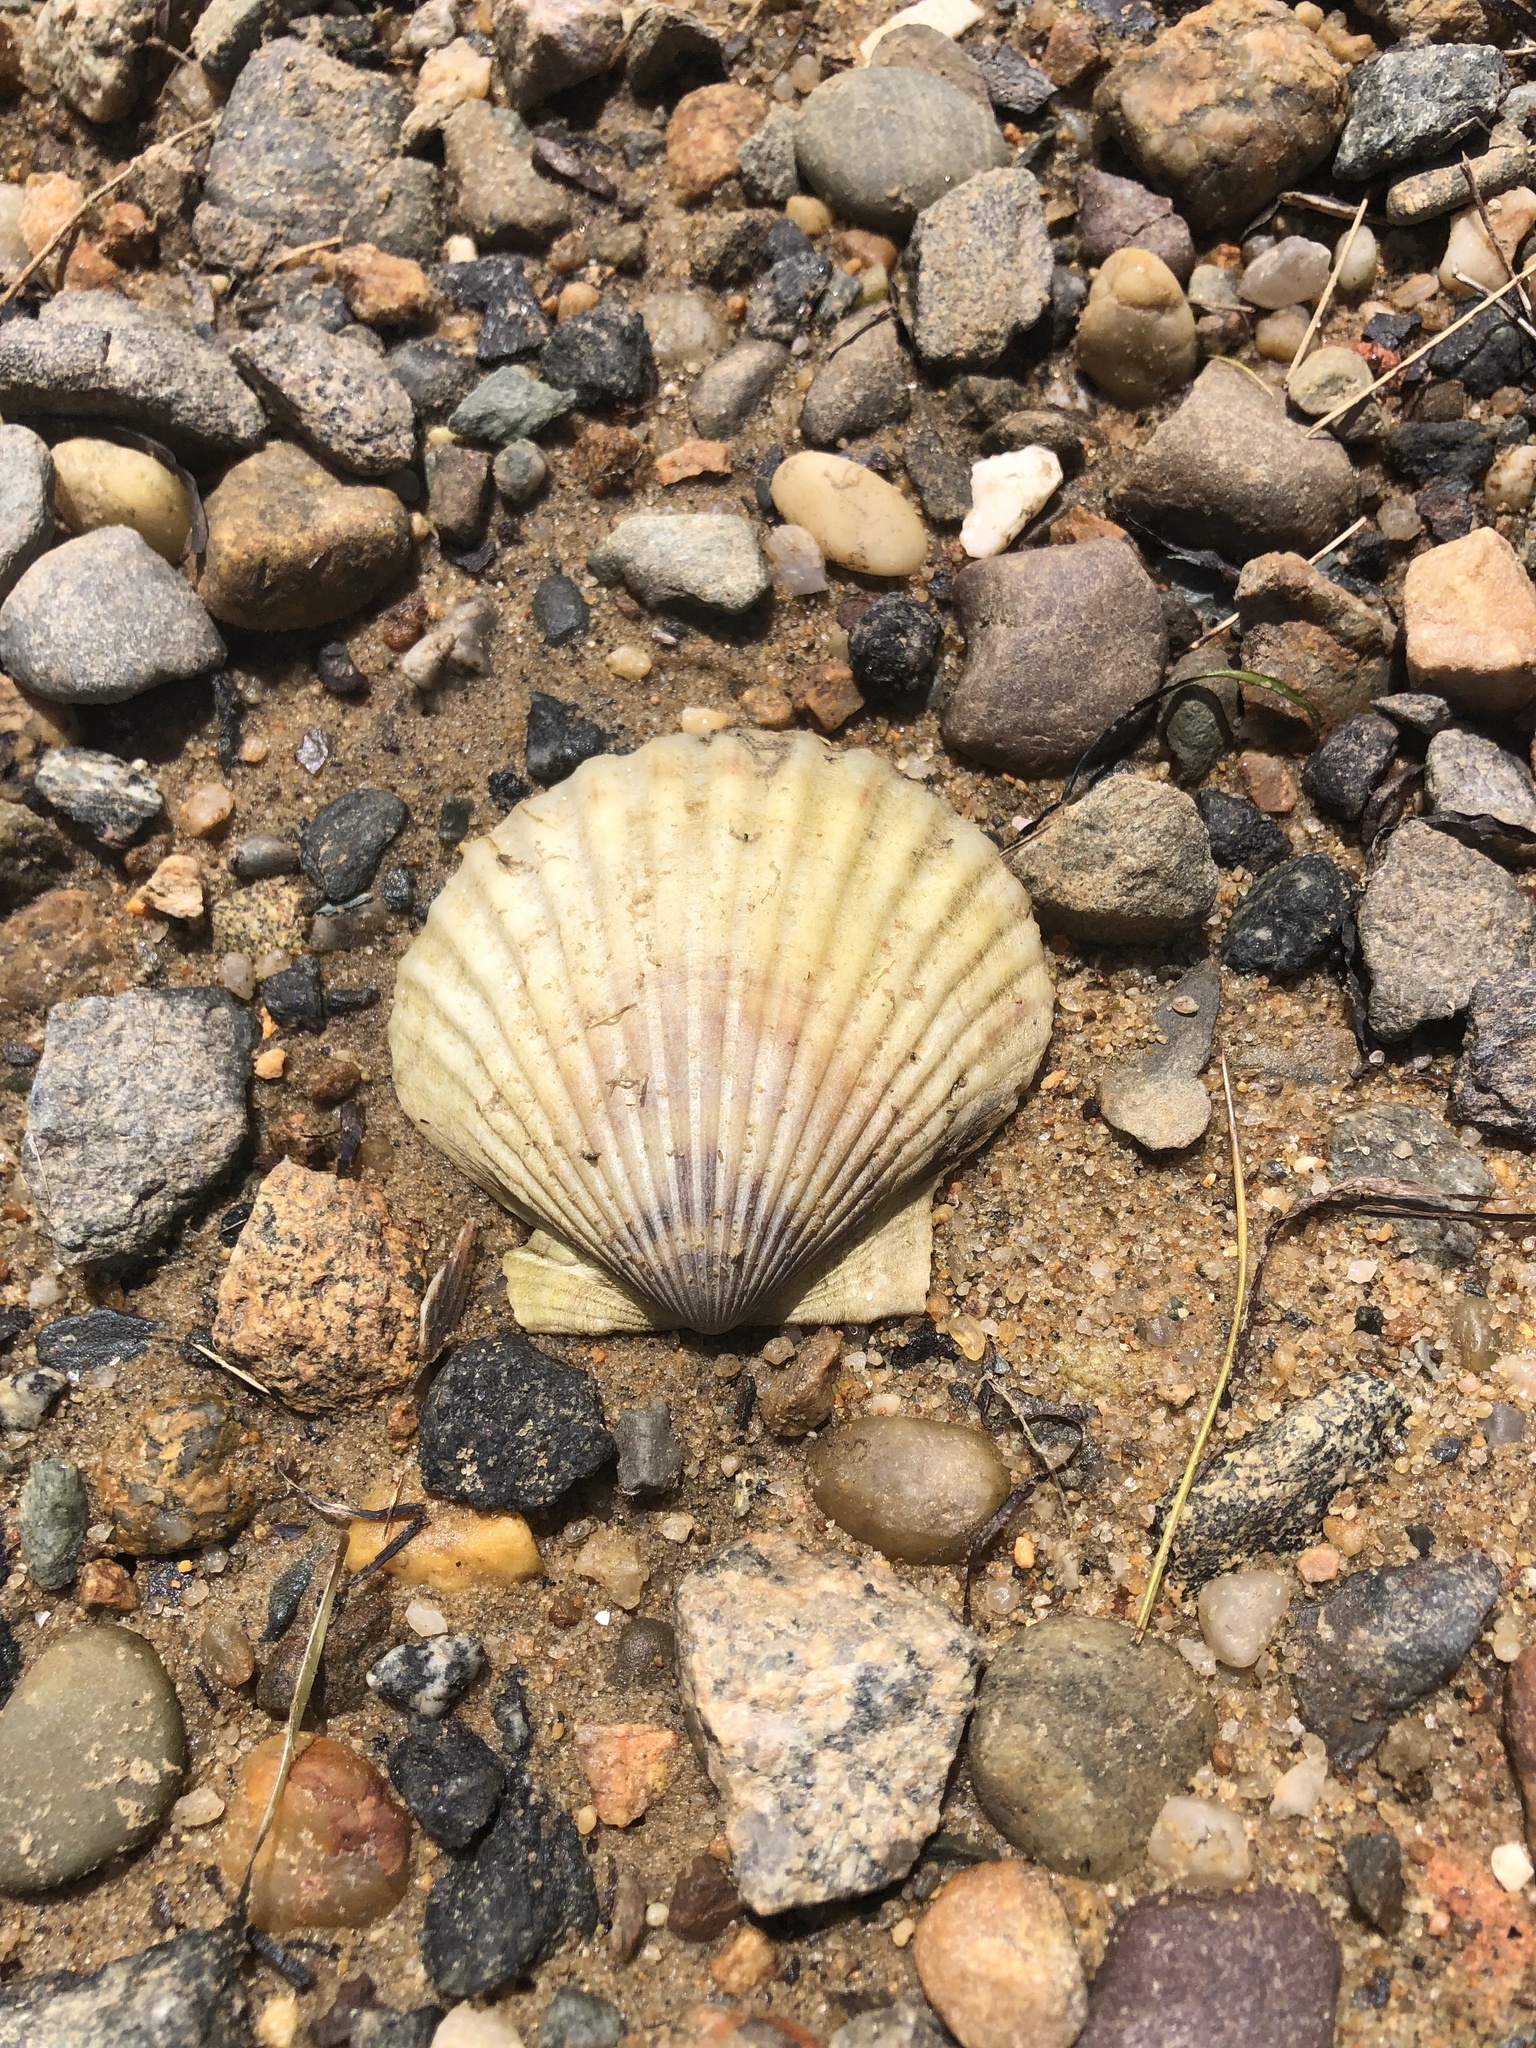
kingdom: Animalia
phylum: Mollusca
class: Bivalvia
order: Pectinida
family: Pectinidae
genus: Argopecten
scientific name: Argopecten irradians
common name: Atlantic bay scallop
